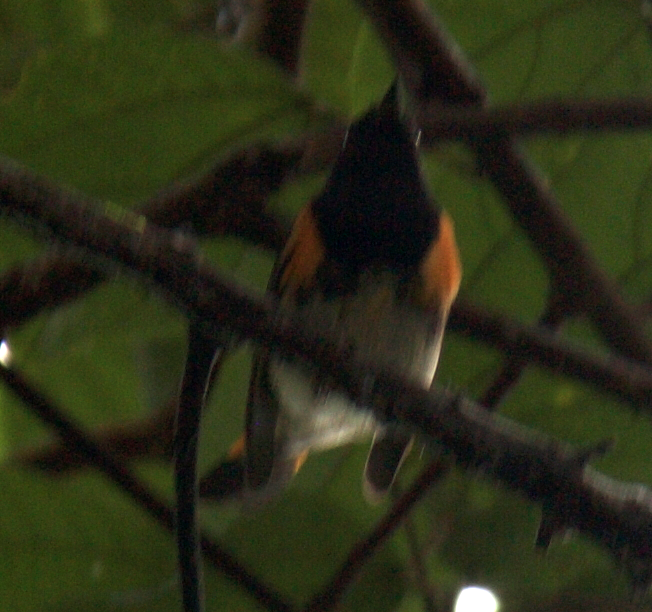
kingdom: Animalia
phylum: Chordata
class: Aves
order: Passeriformes
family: Parulidae
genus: Setophaga
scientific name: Setophaga ruticilla
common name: American redstart
